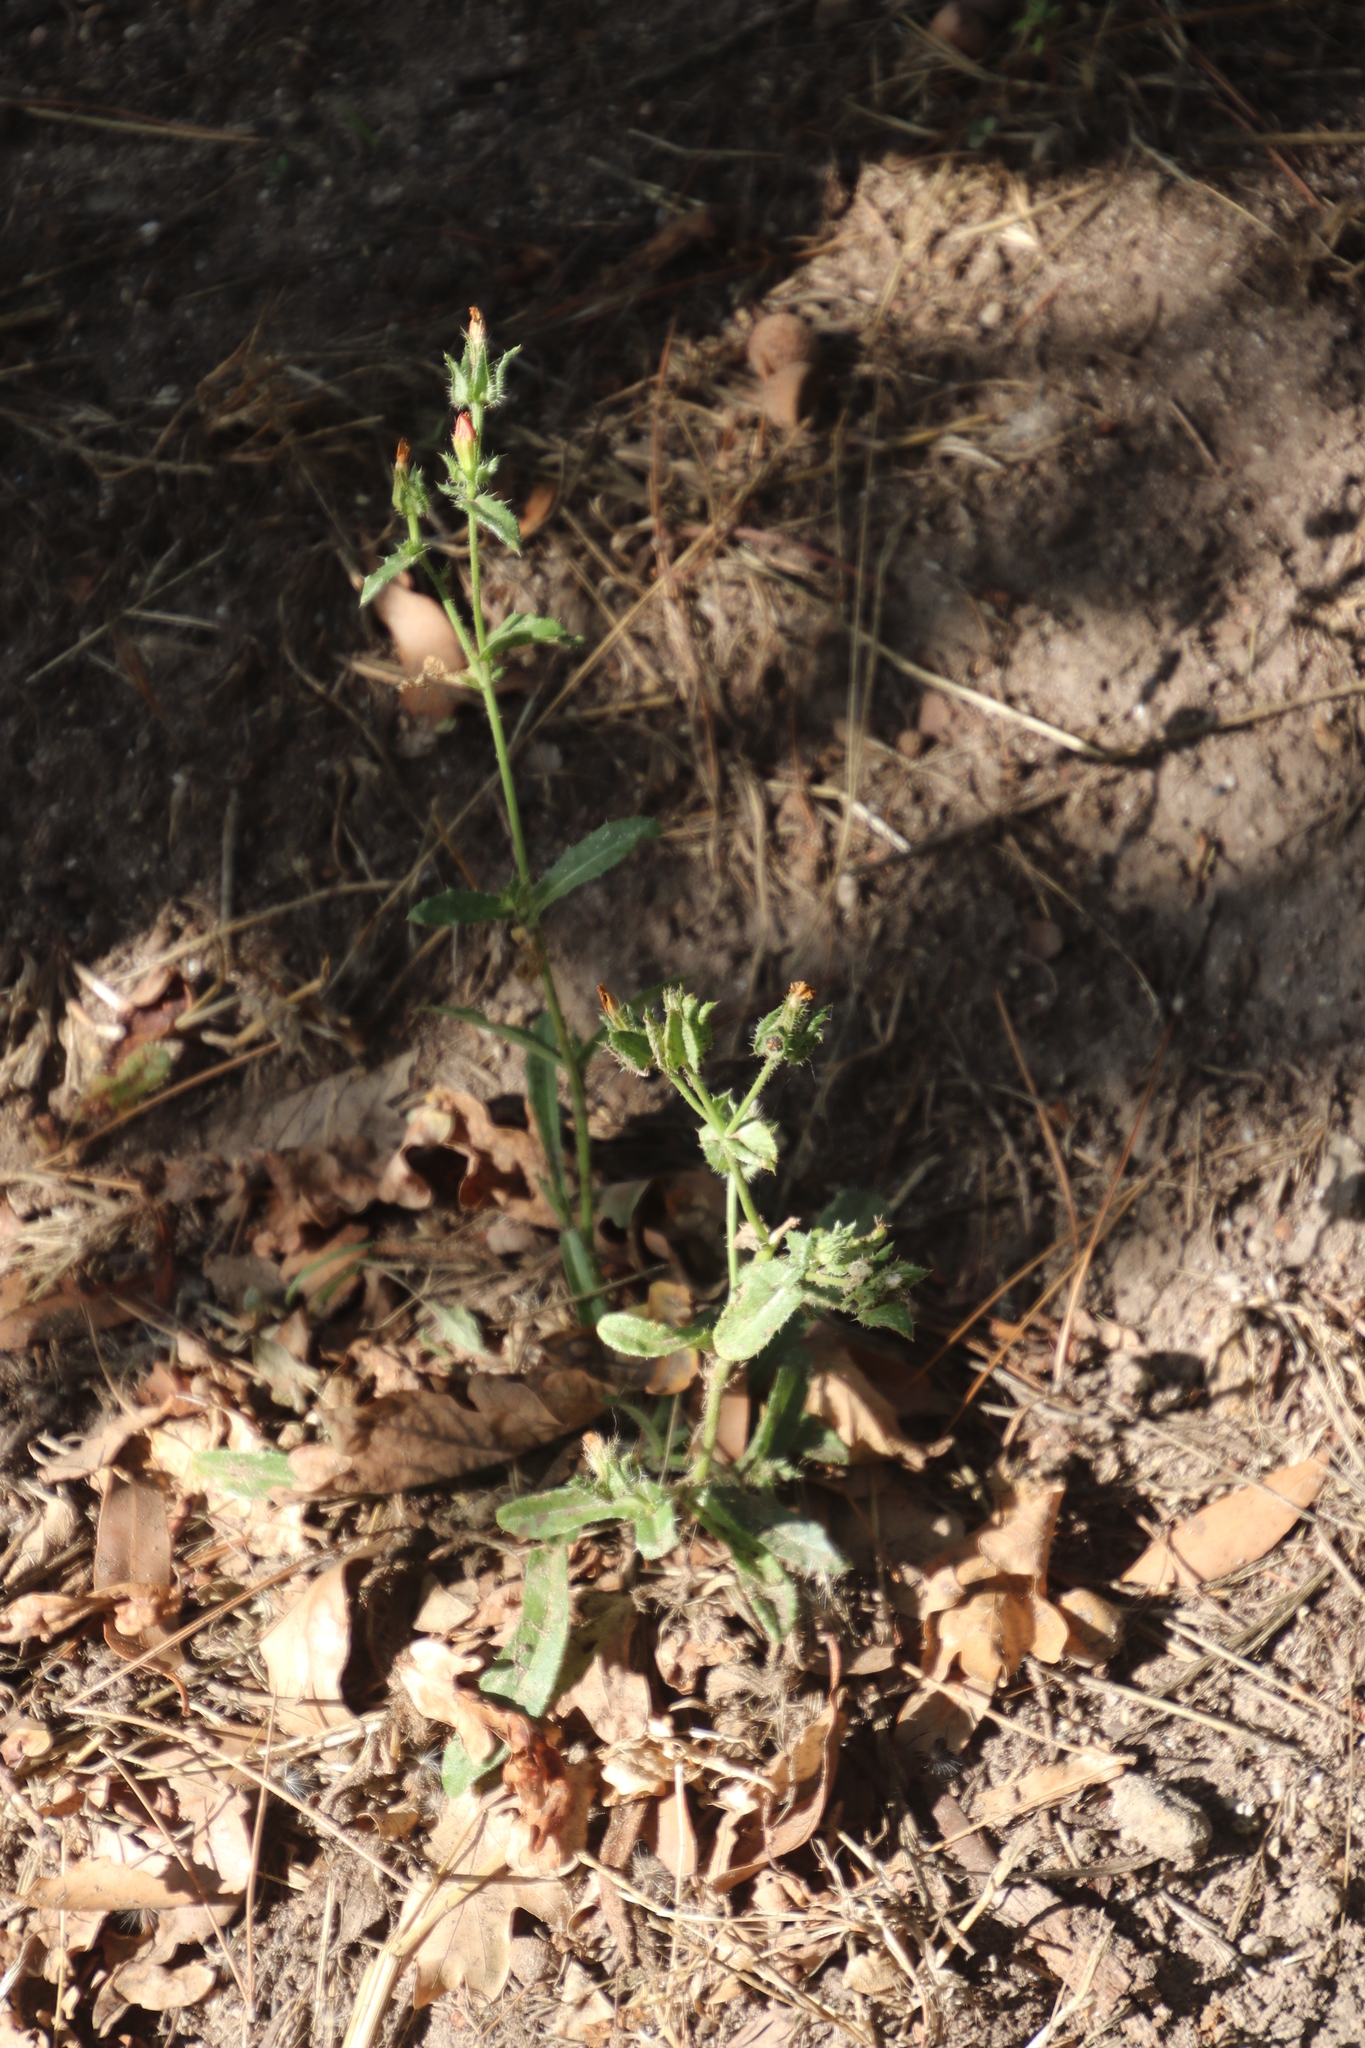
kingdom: Plantae
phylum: Tracheophyta
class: Magnoliopsida
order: Asterales
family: Asteraceae
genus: Helminthotheca
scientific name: Helminthotheca echioides
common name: Ox-tongue
